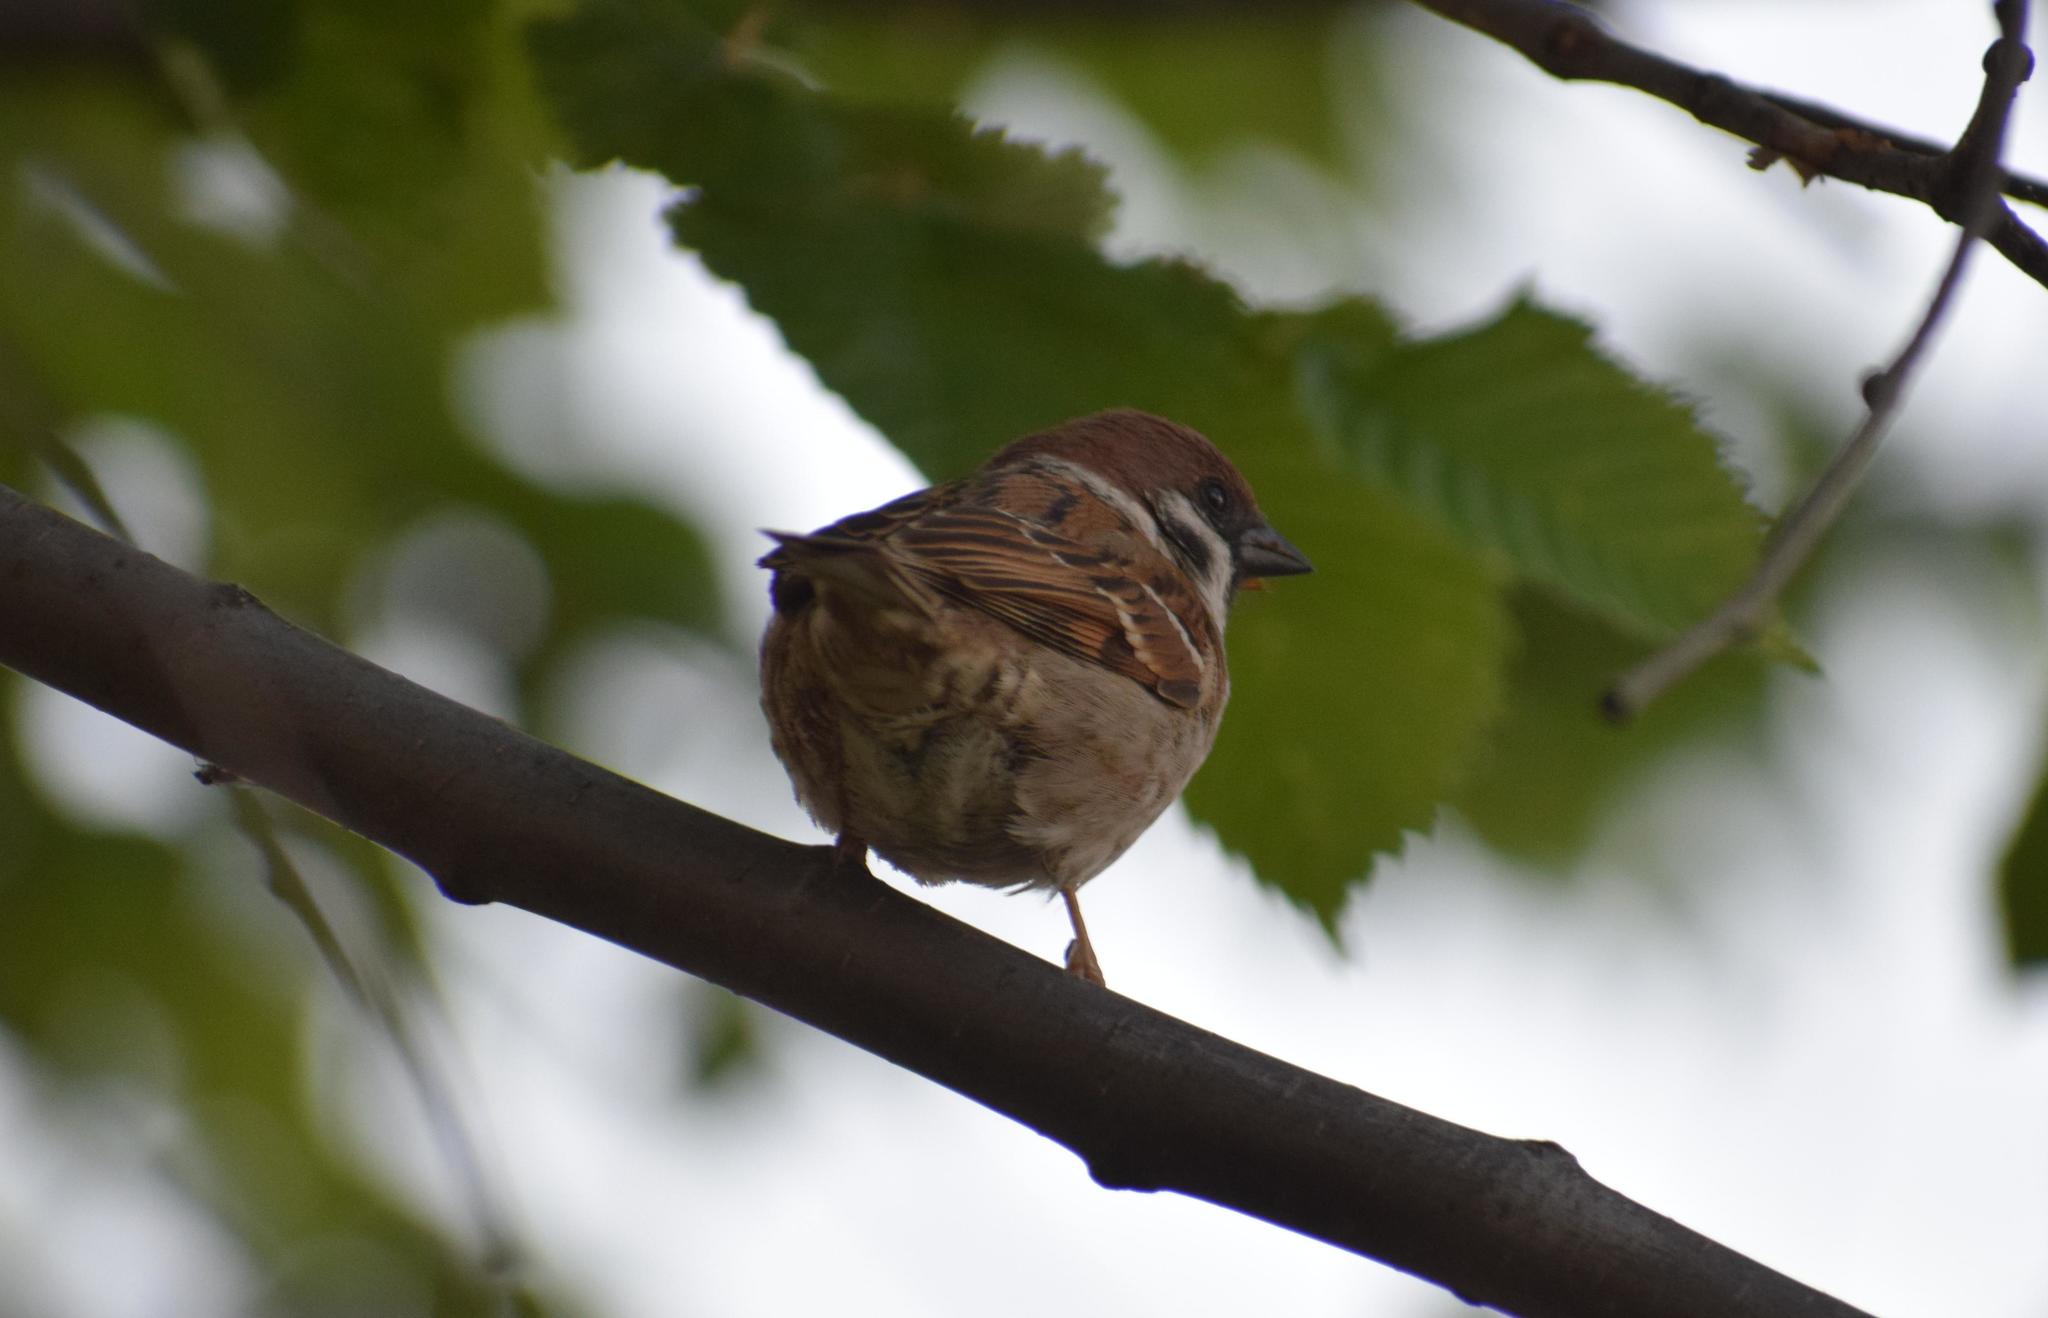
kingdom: Animalia
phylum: Chordata
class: Aves
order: Passeriformes
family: Passeridae
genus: Passer
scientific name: Passer montanus
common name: Eurasian tree sparrow
